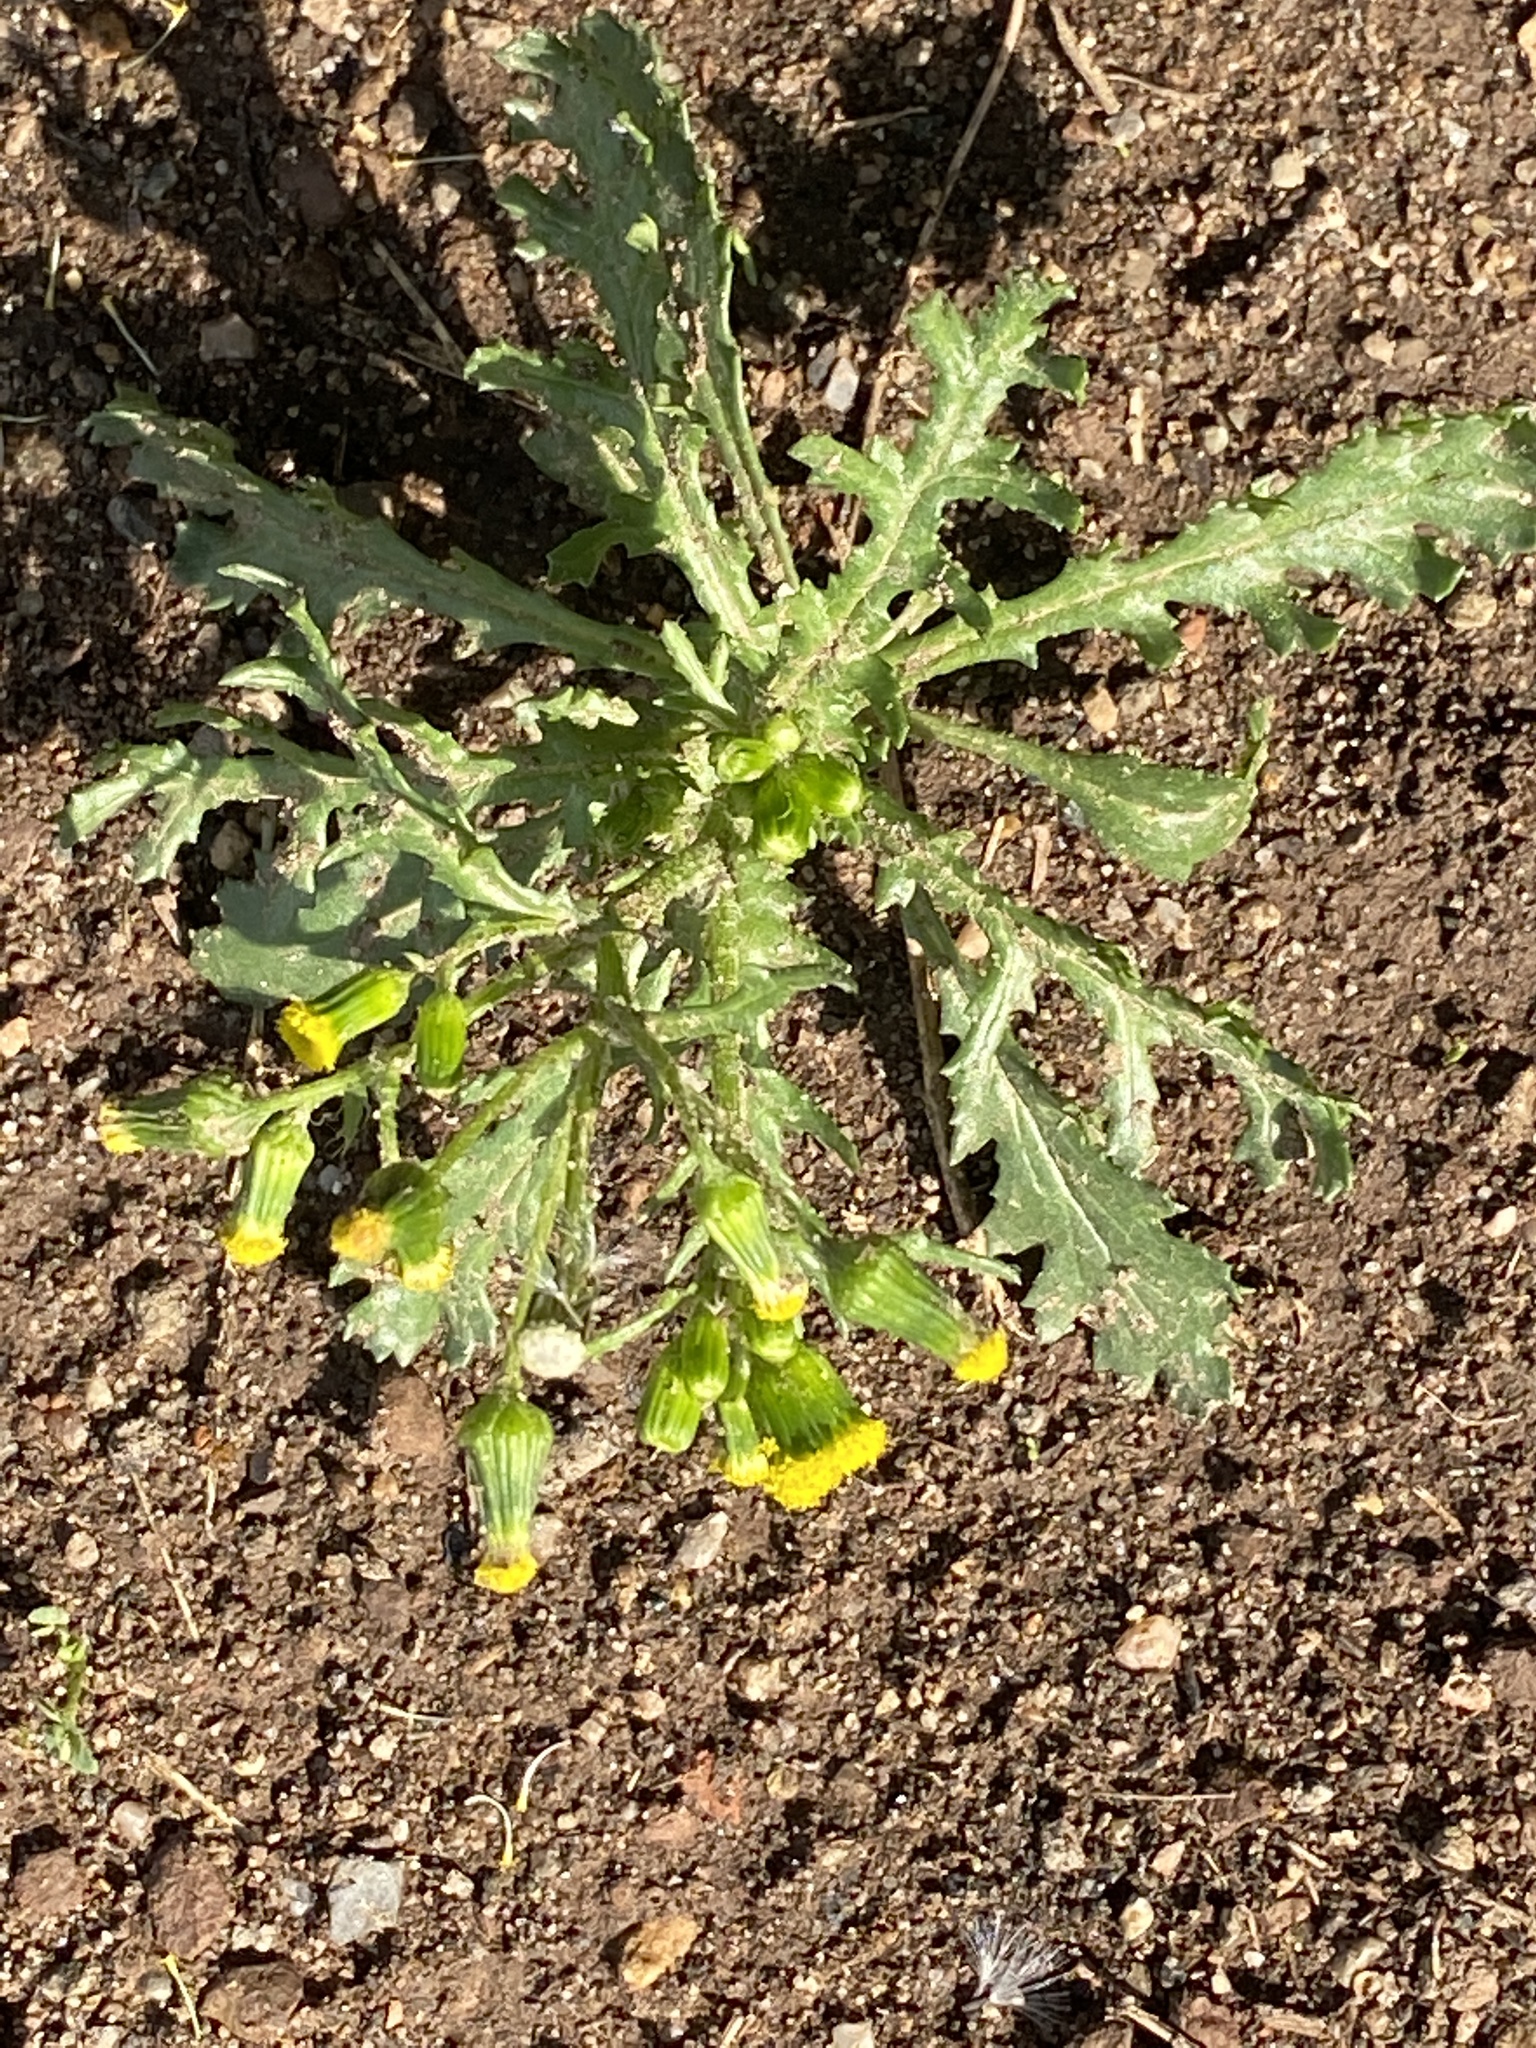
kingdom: Plantae
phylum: Tracheophyta
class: Magnoliopsida
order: Asterales
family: Asteraceae
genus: Senecio
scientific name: Senecio vulgaris
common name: Old-man-in-the-spring
